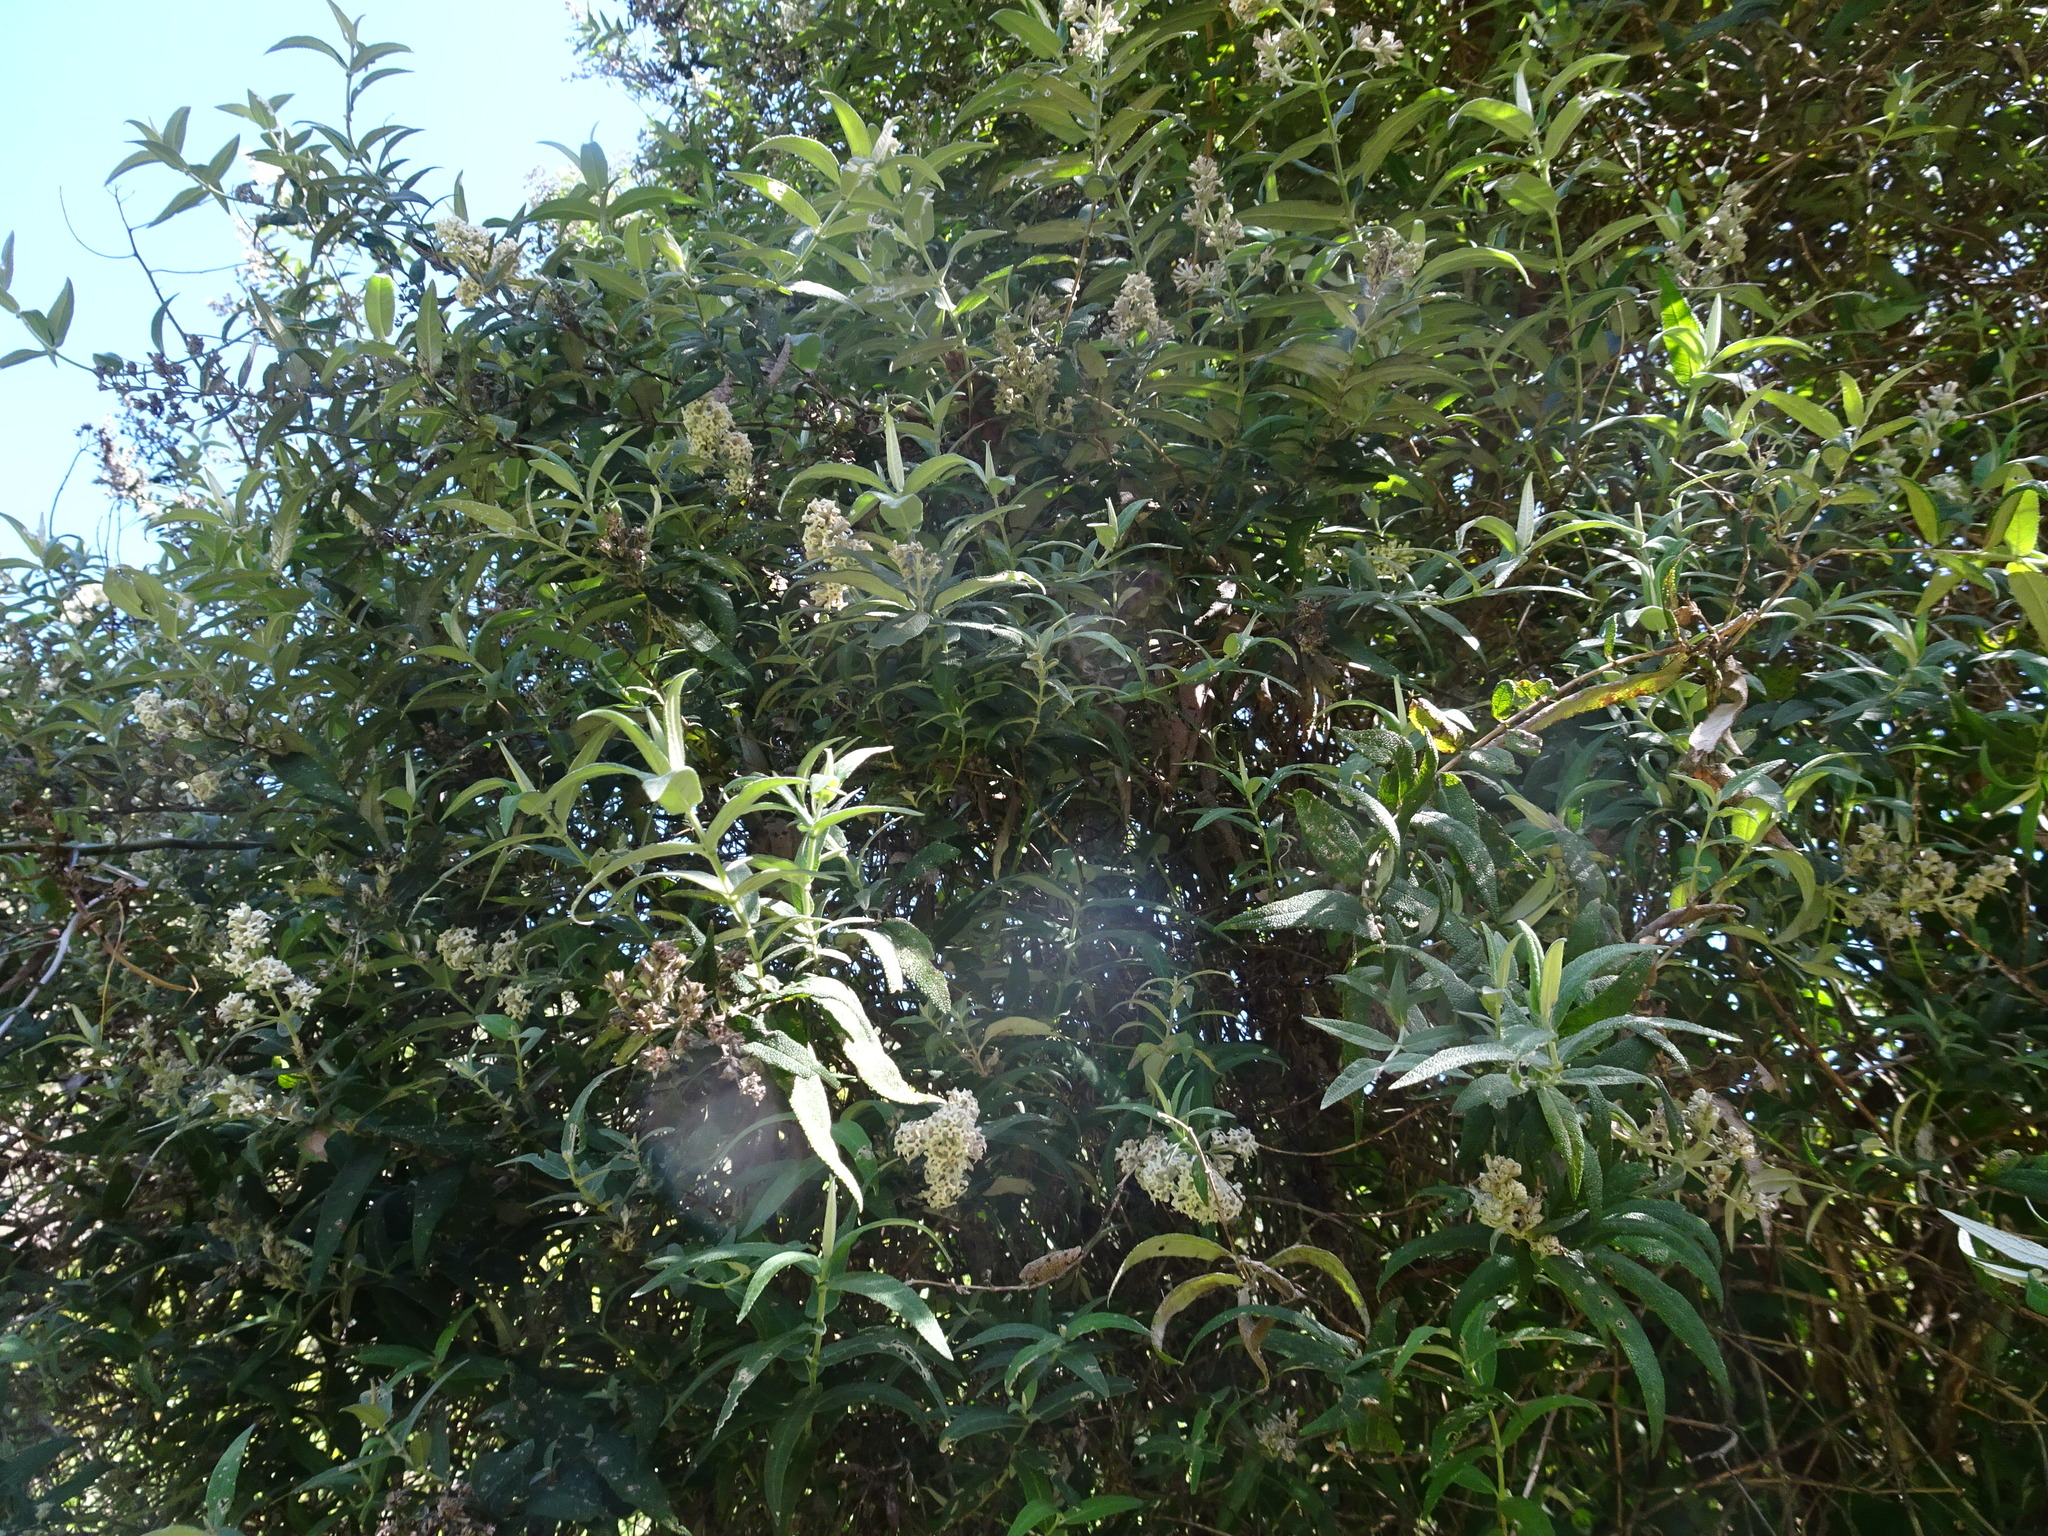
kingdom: Plantae
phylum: Tracheophyta
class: Magnoliopsida
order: Lamiales
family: Scrophulariaceae
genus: Buddleja
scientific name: Buddleja salviifolia
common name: Sagewood
